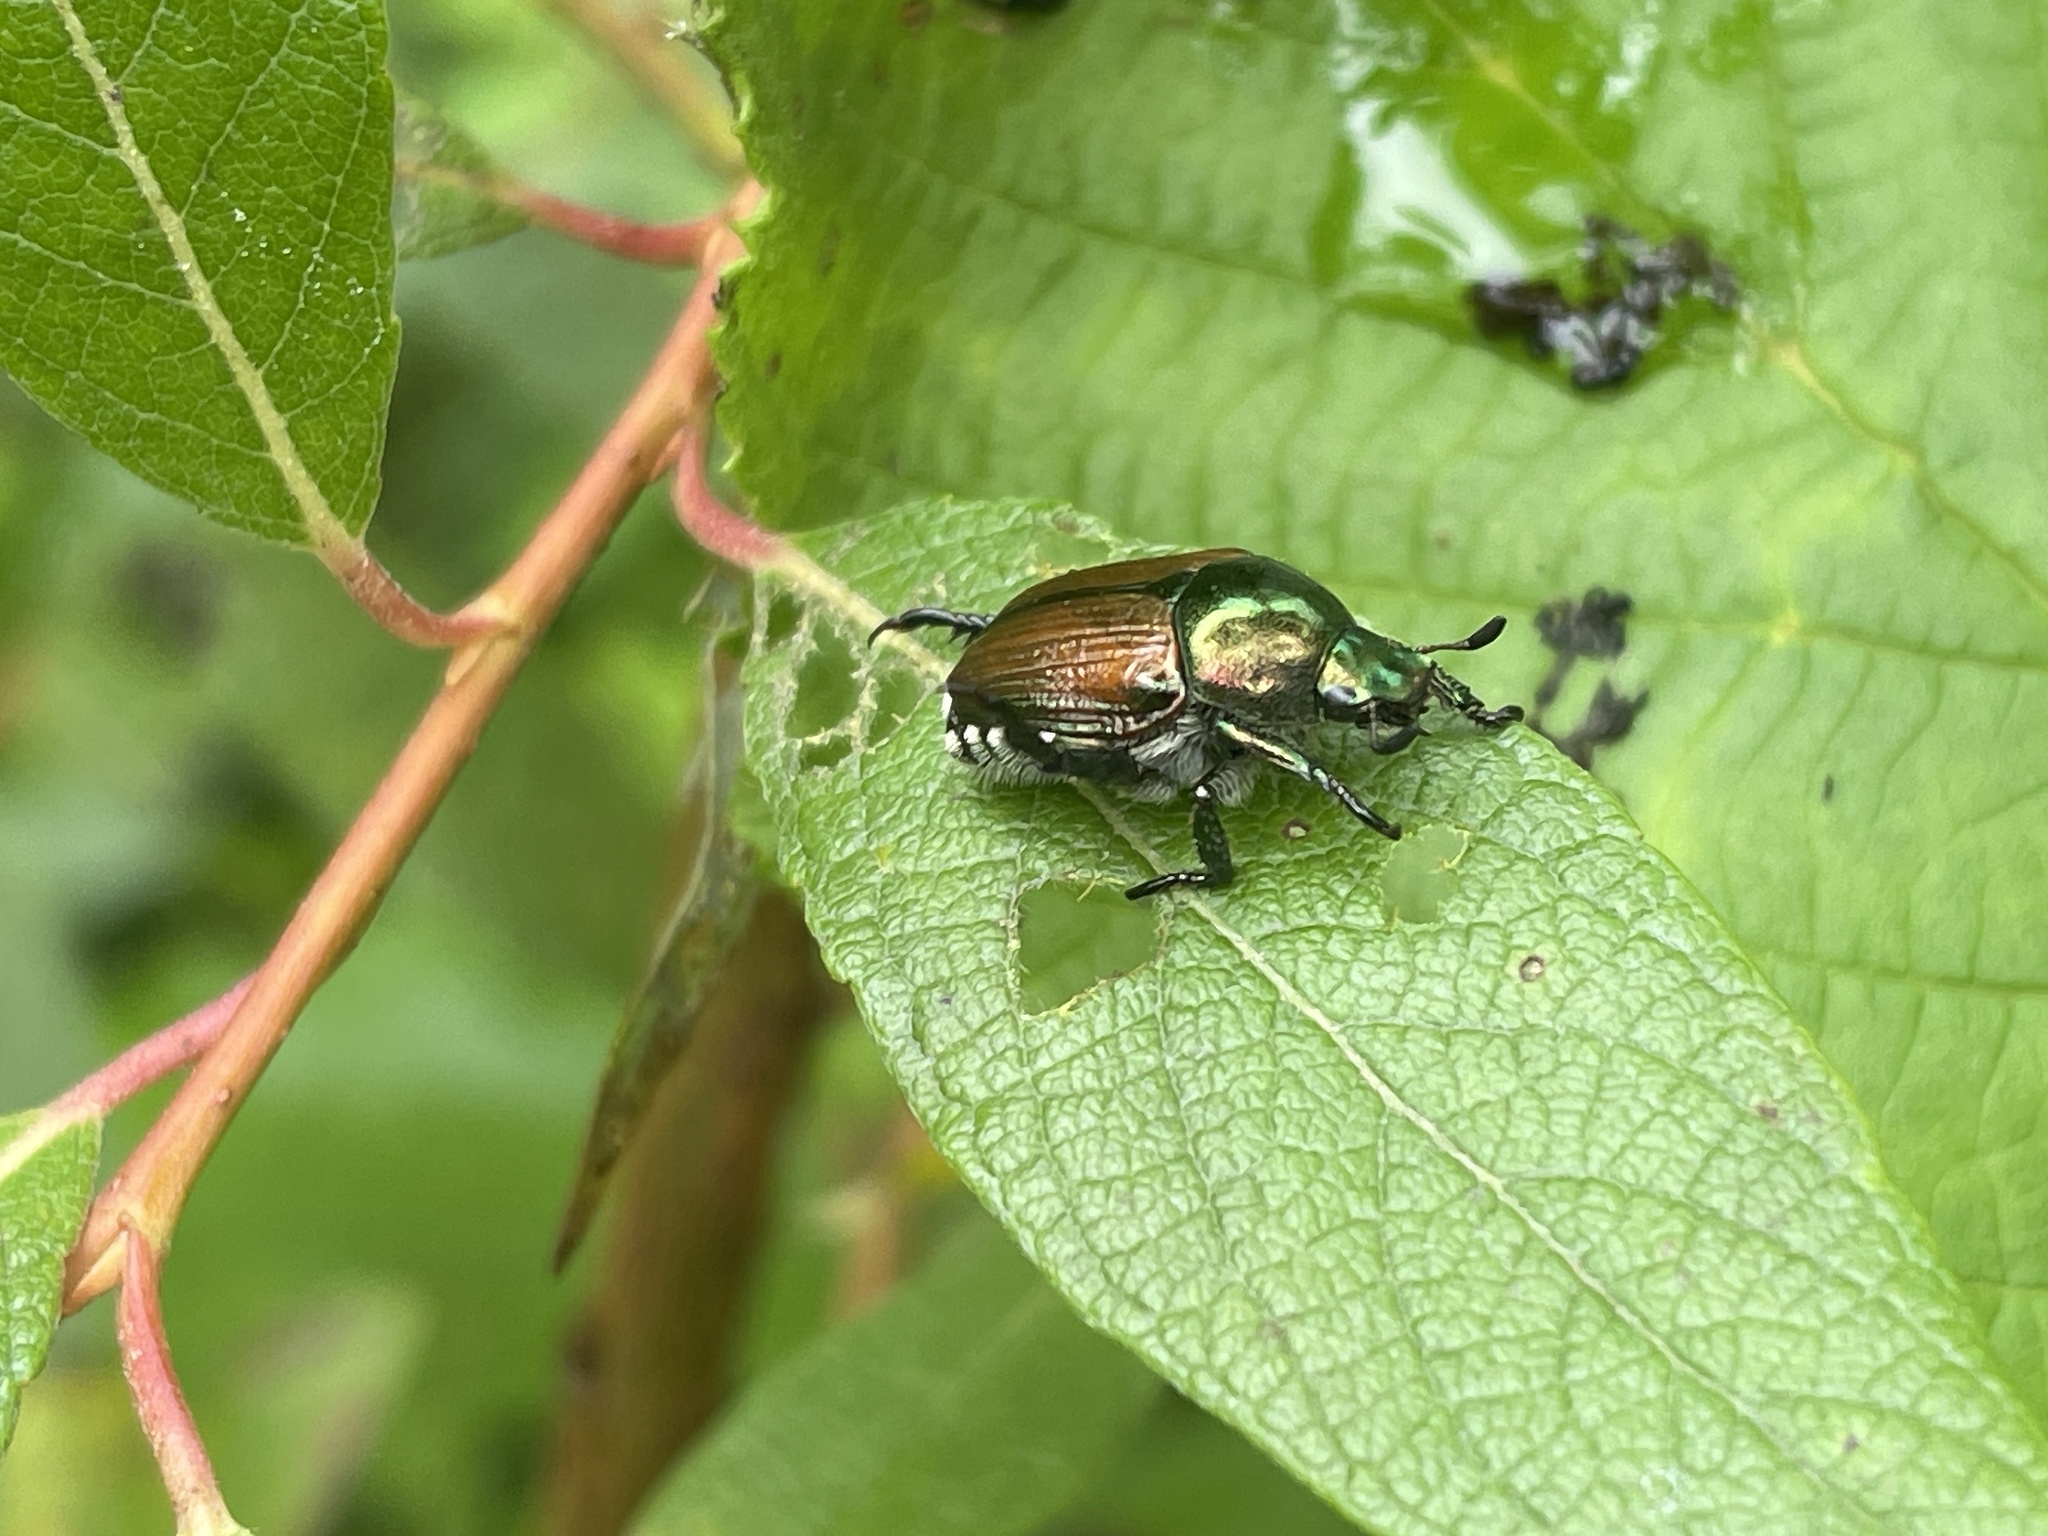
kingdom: Animalia
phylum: Arthropoda
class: Insecta
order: Coleoptera
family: Scarabaeidae
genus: Popillia
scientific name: Popillia japonica
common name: Japanese beetle
